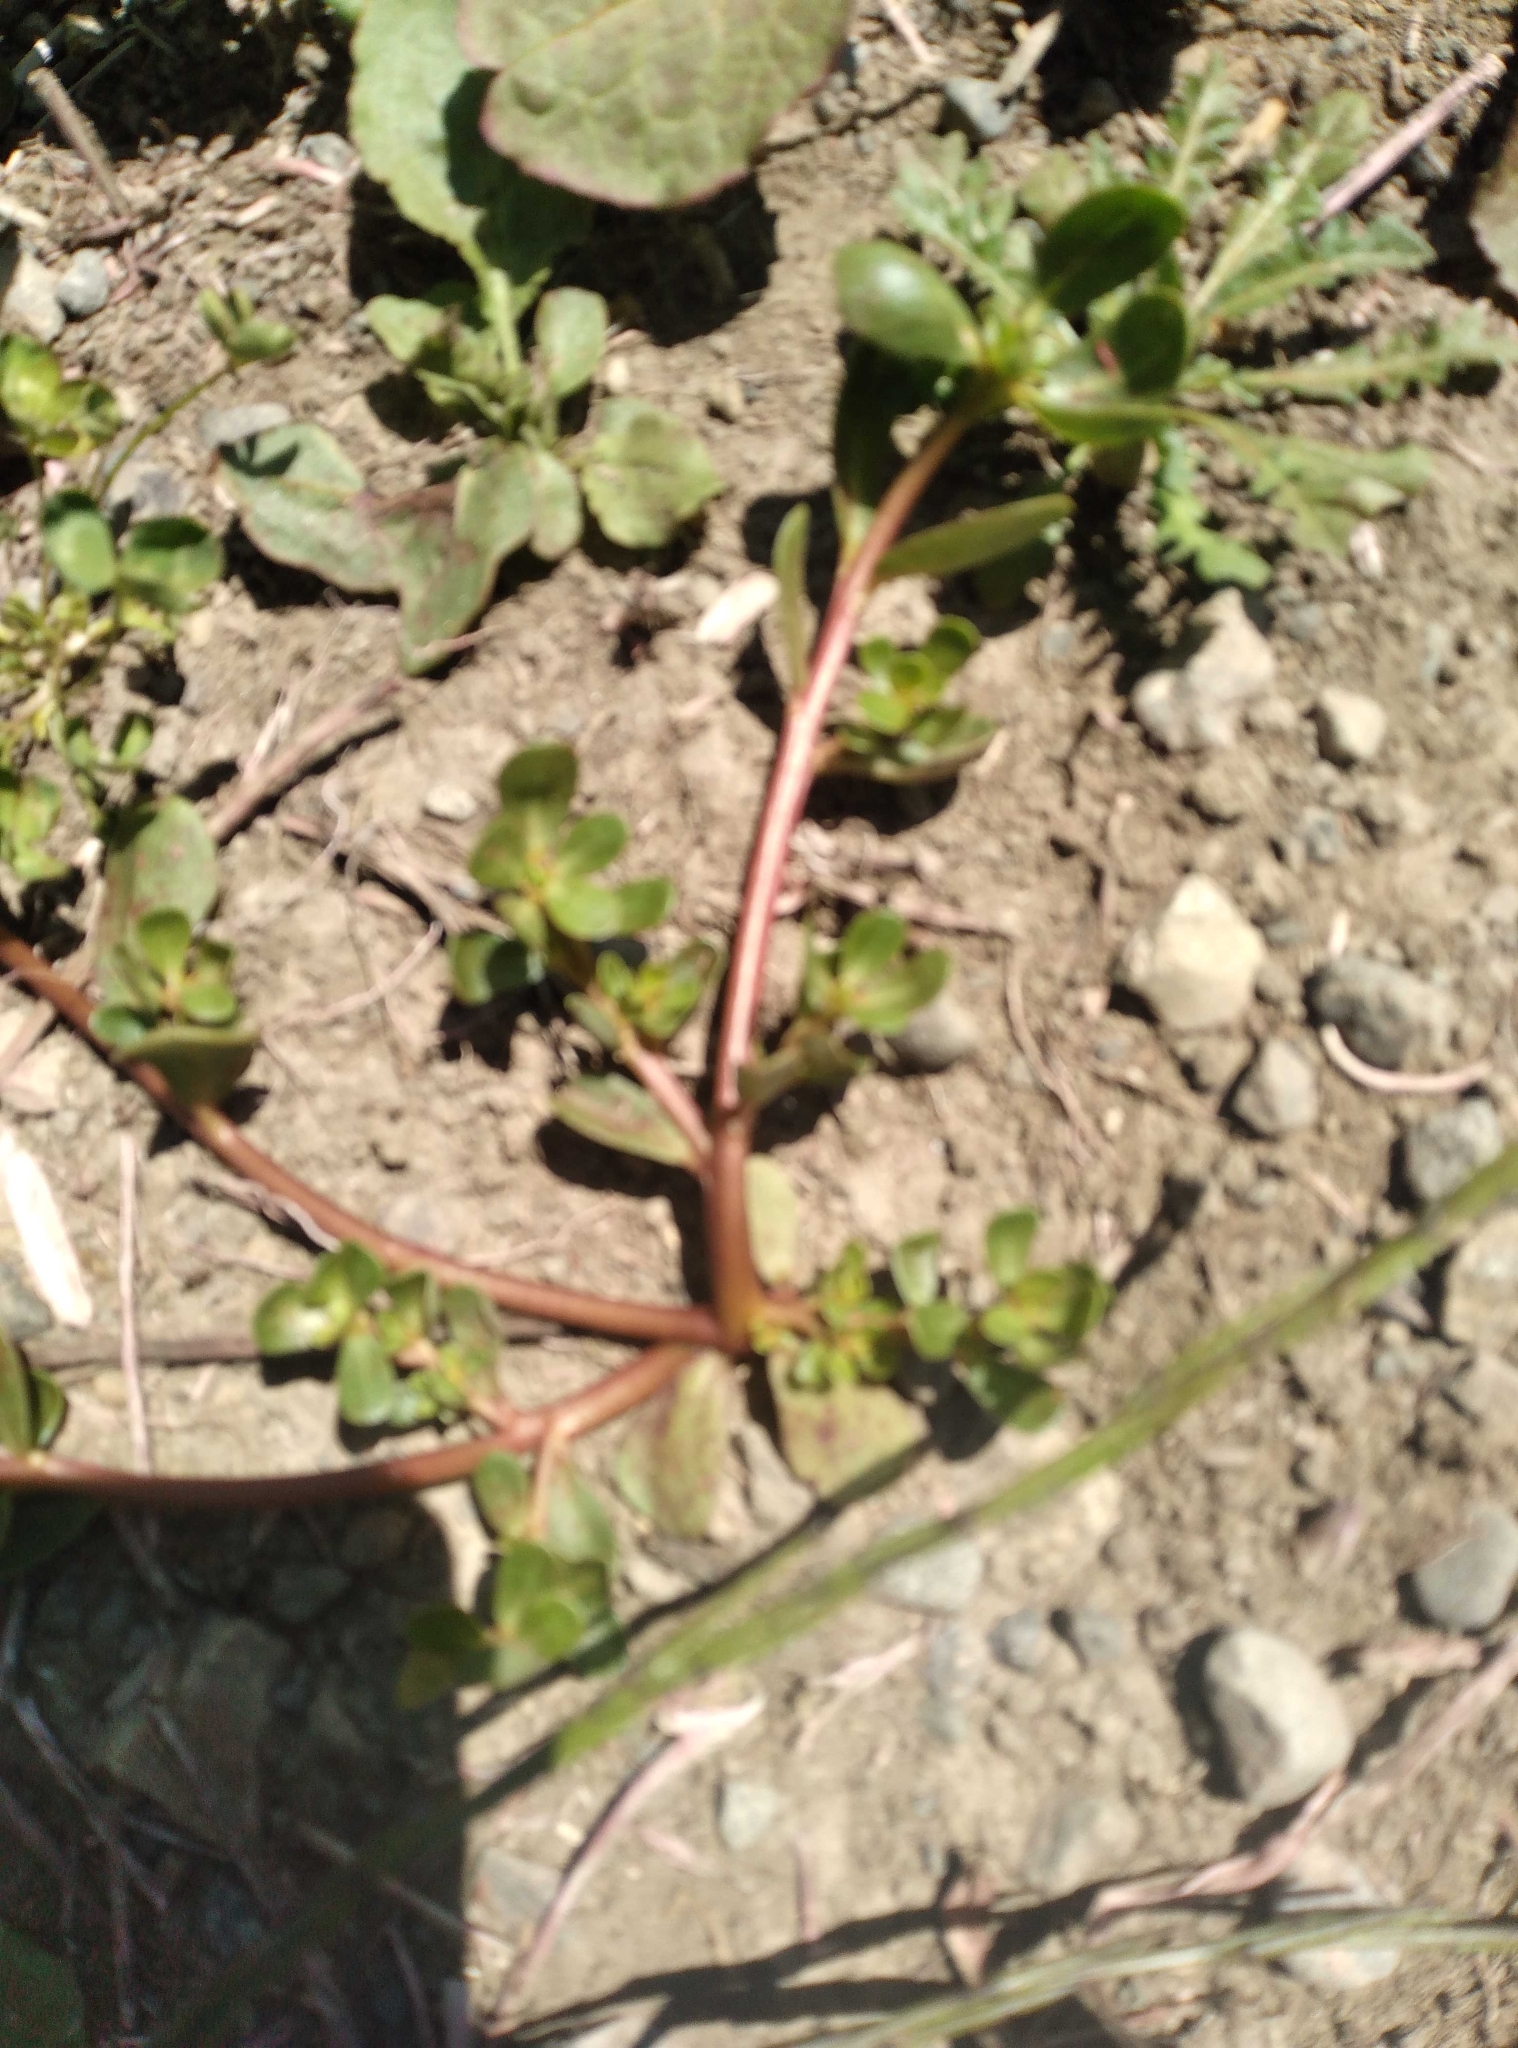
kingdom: Plantae
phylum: Tracheophyta
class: Magnoliopsida
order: Caryophyllales
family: Portulacaceae
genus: Portulaca
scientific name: Portulaca oleracea
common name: Common purslane
